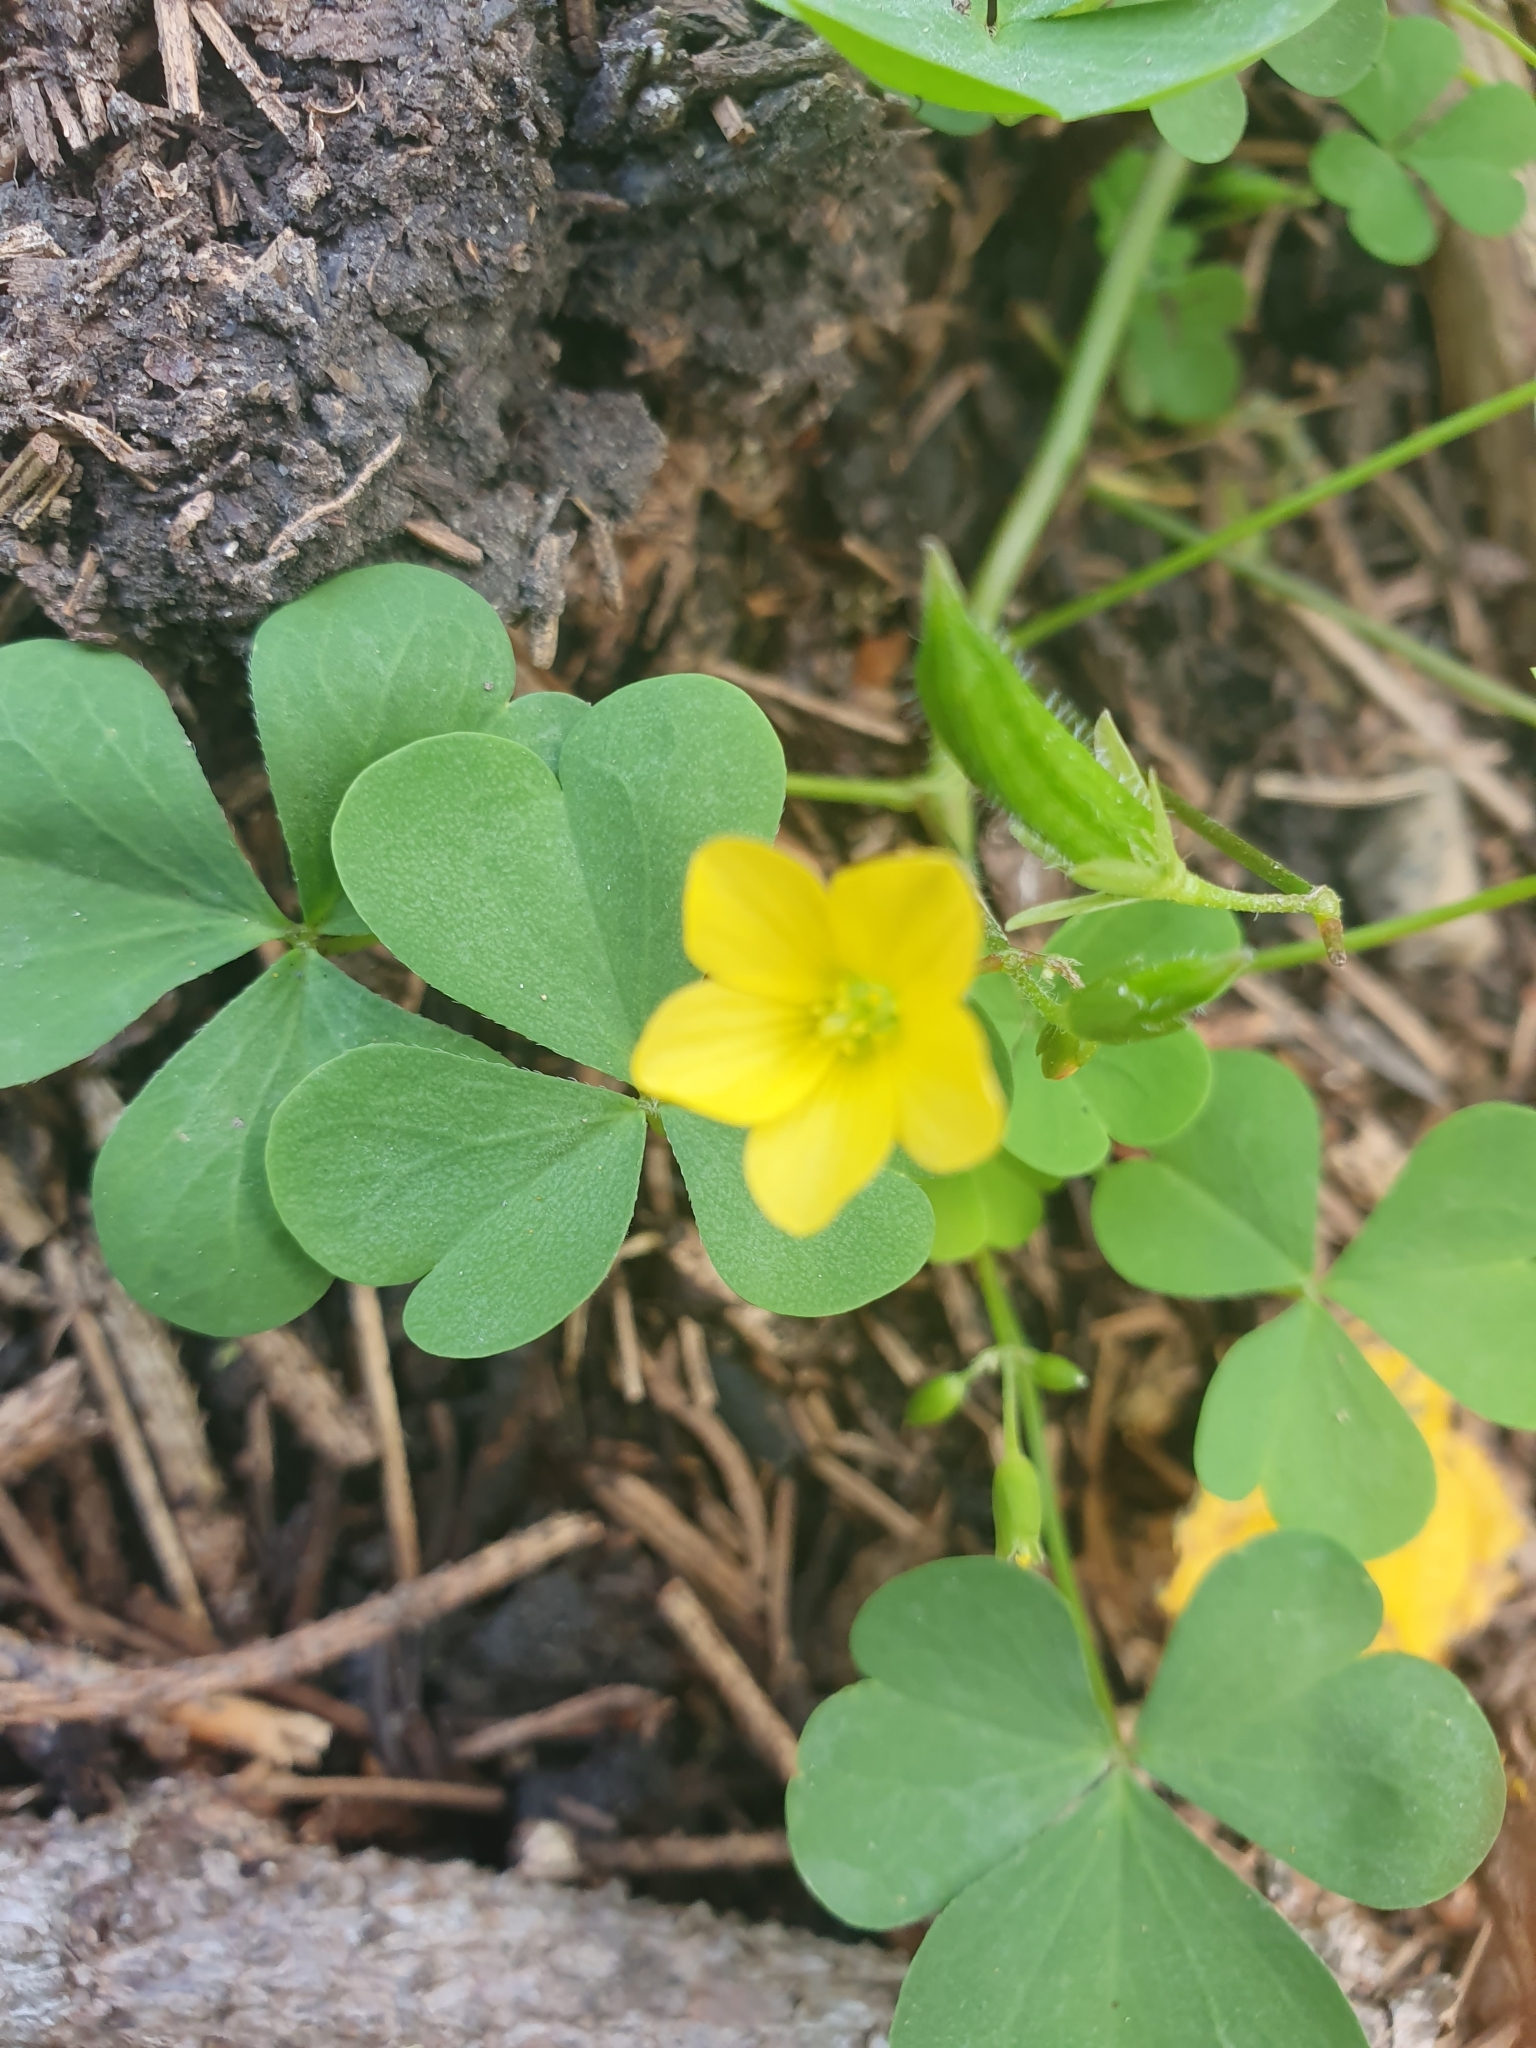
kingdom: Plantae
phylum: Tracheophyta
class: Magnoliopsida
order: Oxalidales
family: Oxalidaceae
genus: Oxalis
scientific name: Oxalis stricta
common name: Upright yellow-sorrel
